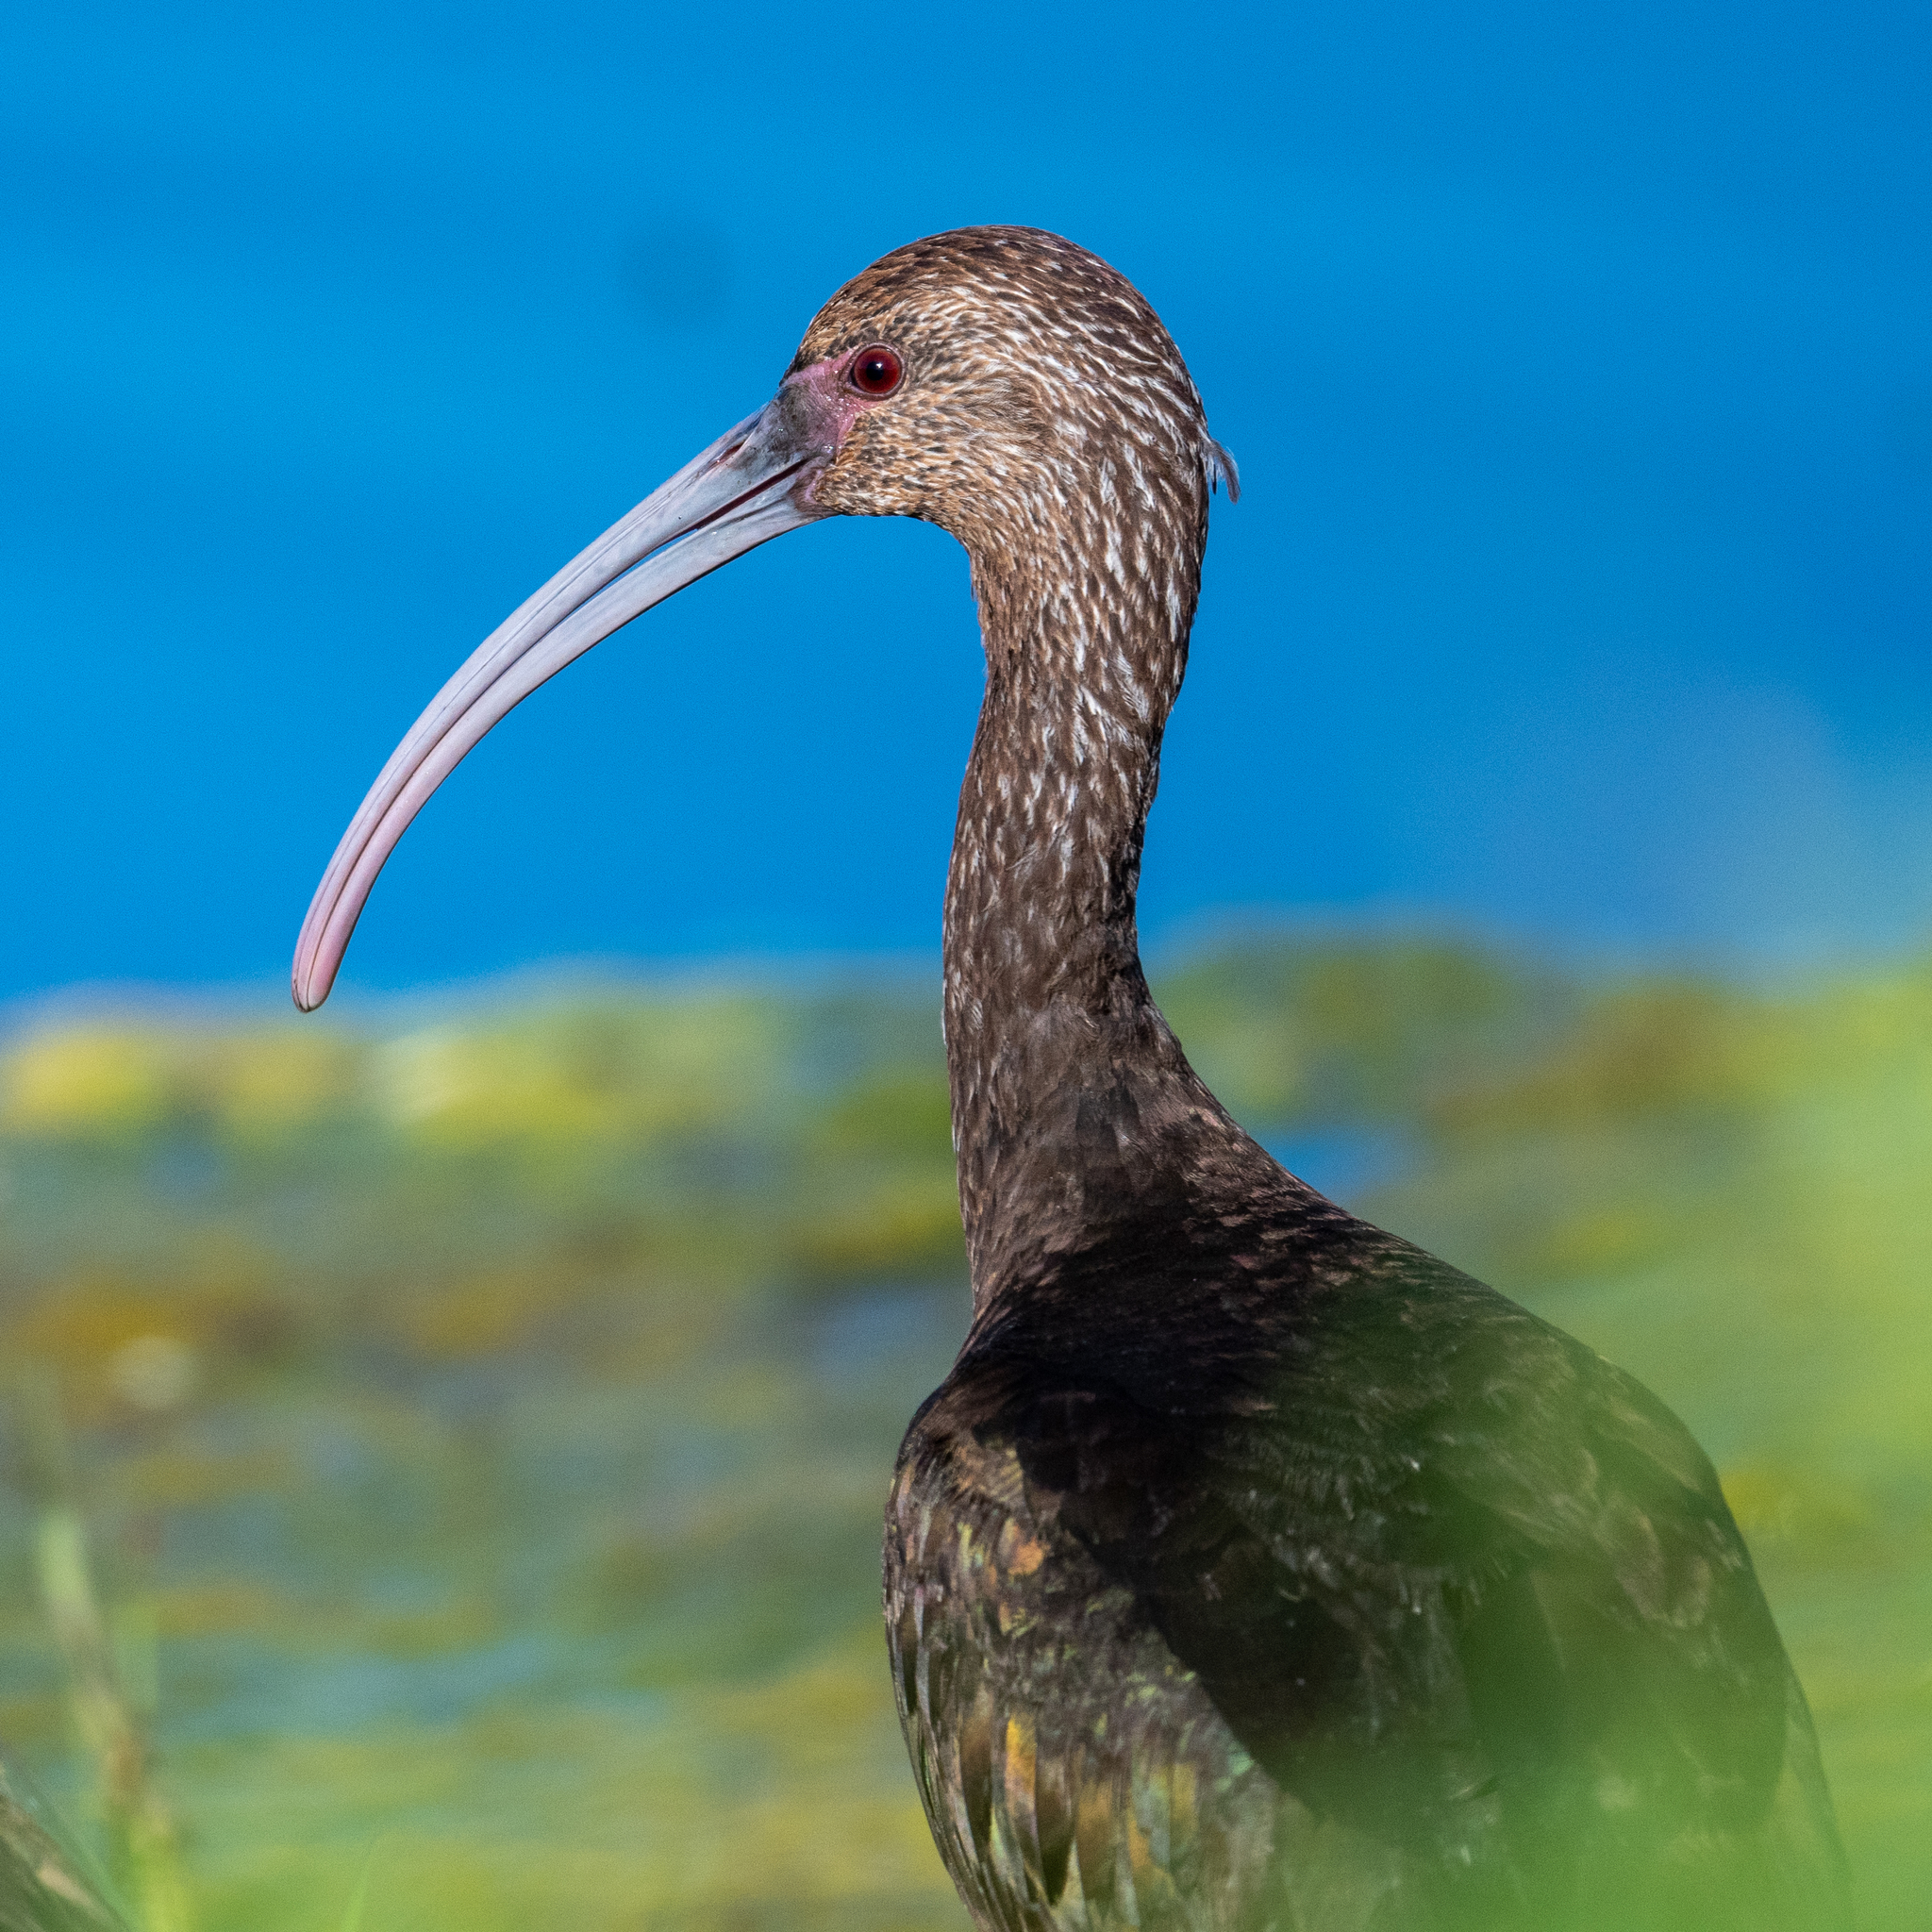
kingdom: Animalia
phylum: Chordata
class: Aves
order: Pelecaniformes
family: Threskiornithidae
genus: Plegadis
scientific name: Plegadis chihi
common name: White-faced ibis
